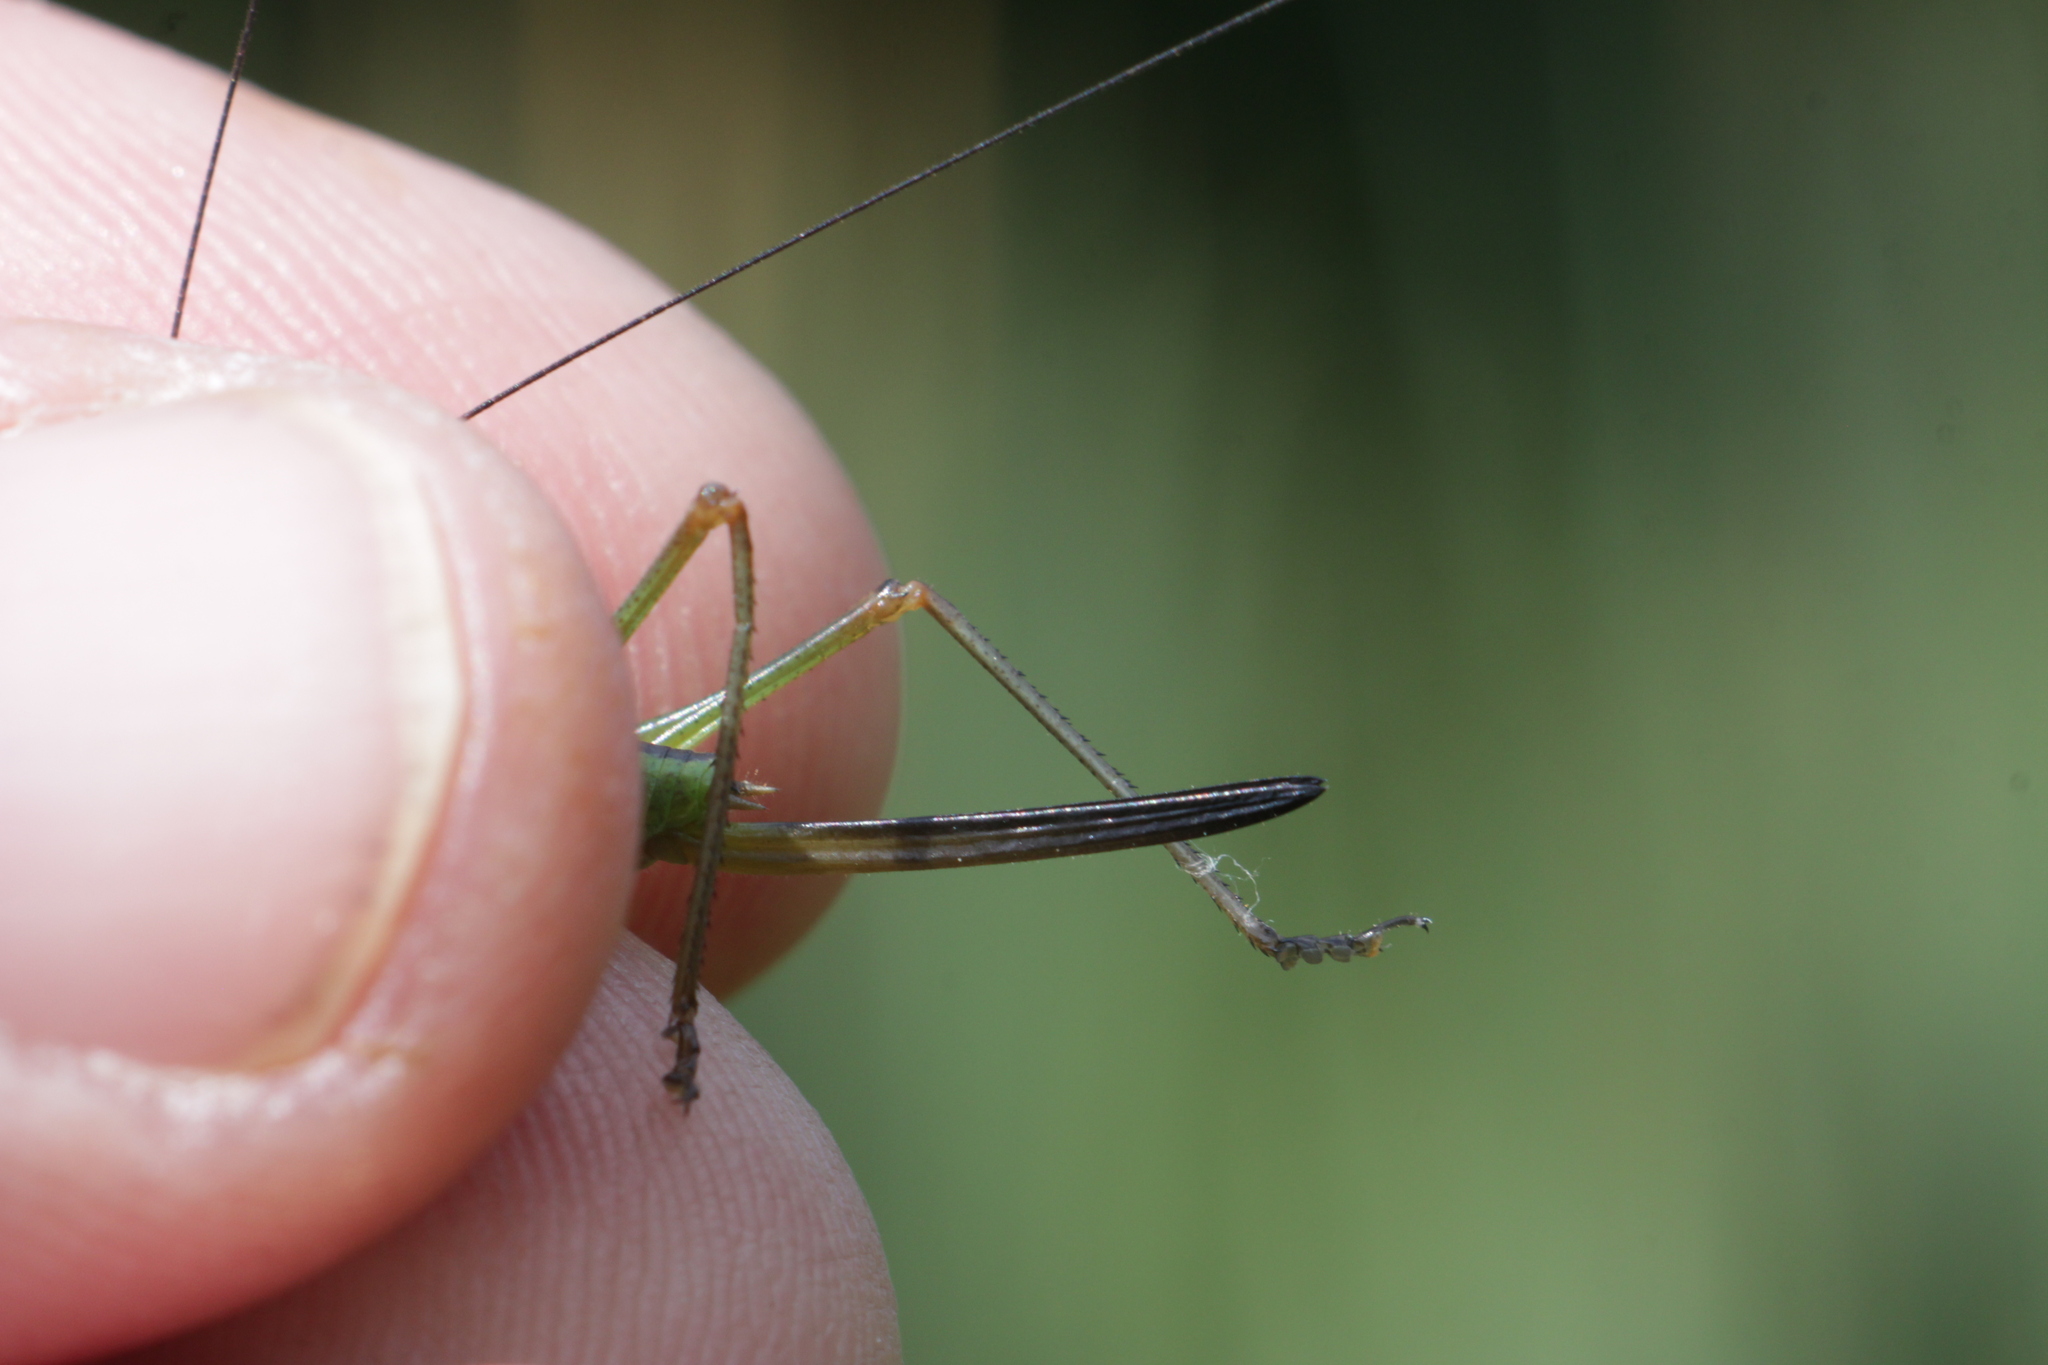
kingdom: Animalia
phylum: Arthropoda
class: Insecta
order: Orthoptera
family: Tettigoniidae
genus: Conocephalus
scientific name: Conocephalus fuscus
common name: Long-winged conehead
